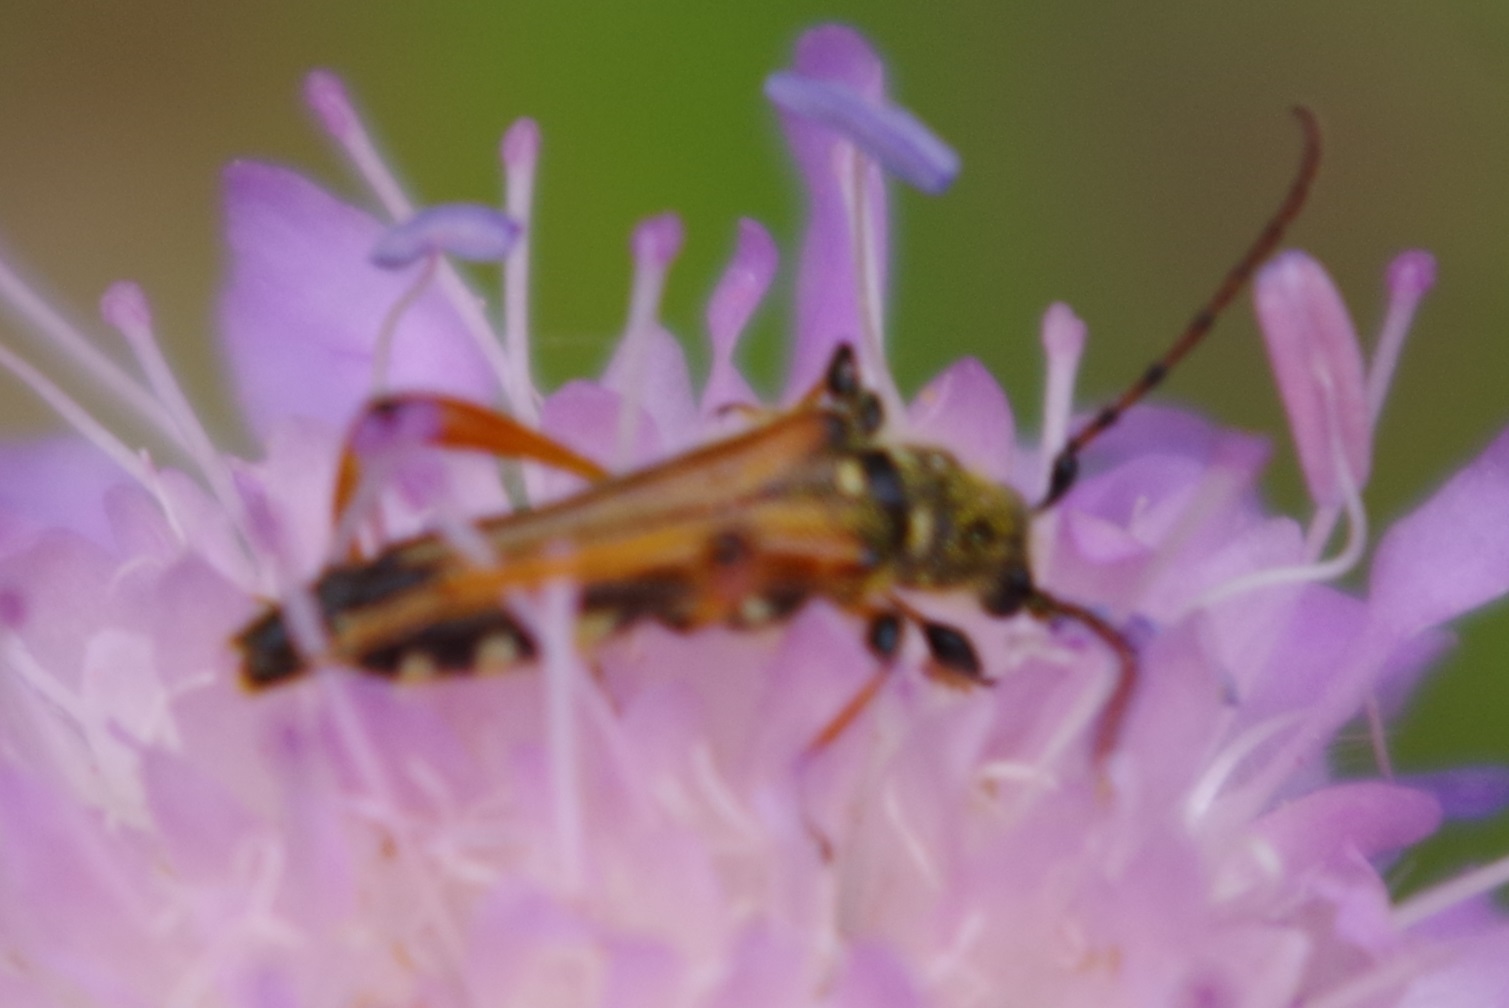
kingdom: Animalia
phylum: Arthropoda
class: Insecta
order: Coleoptera
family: Cerambycidae
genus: Stenopterus
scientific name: Stenopterus rufus
